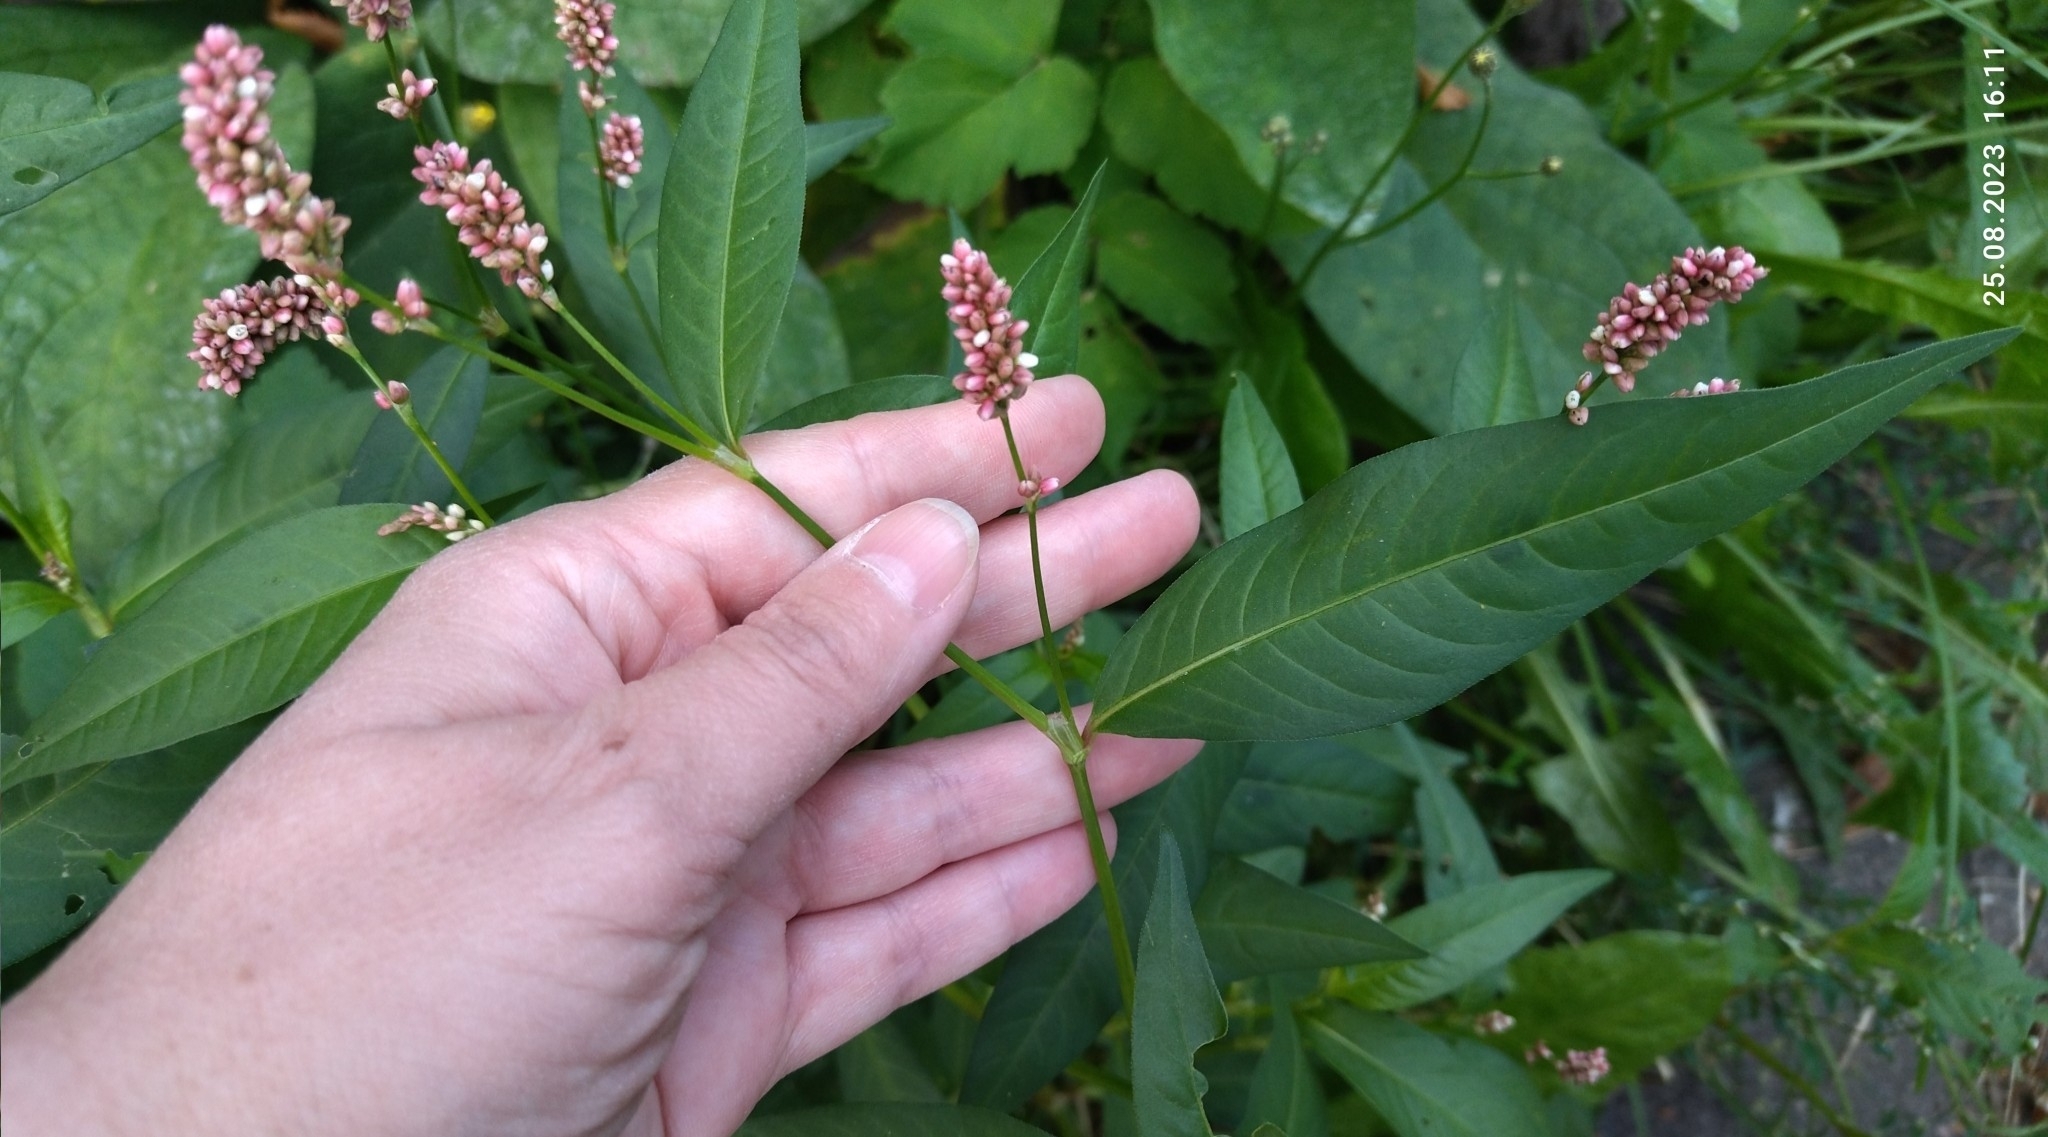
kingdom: Plantae
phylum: Tracheophyta
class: Magnoliopsida
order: Caryophyllales
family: Polygonaceae
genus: Persicaria
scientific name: Persicaria maculosa
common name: Redshank
